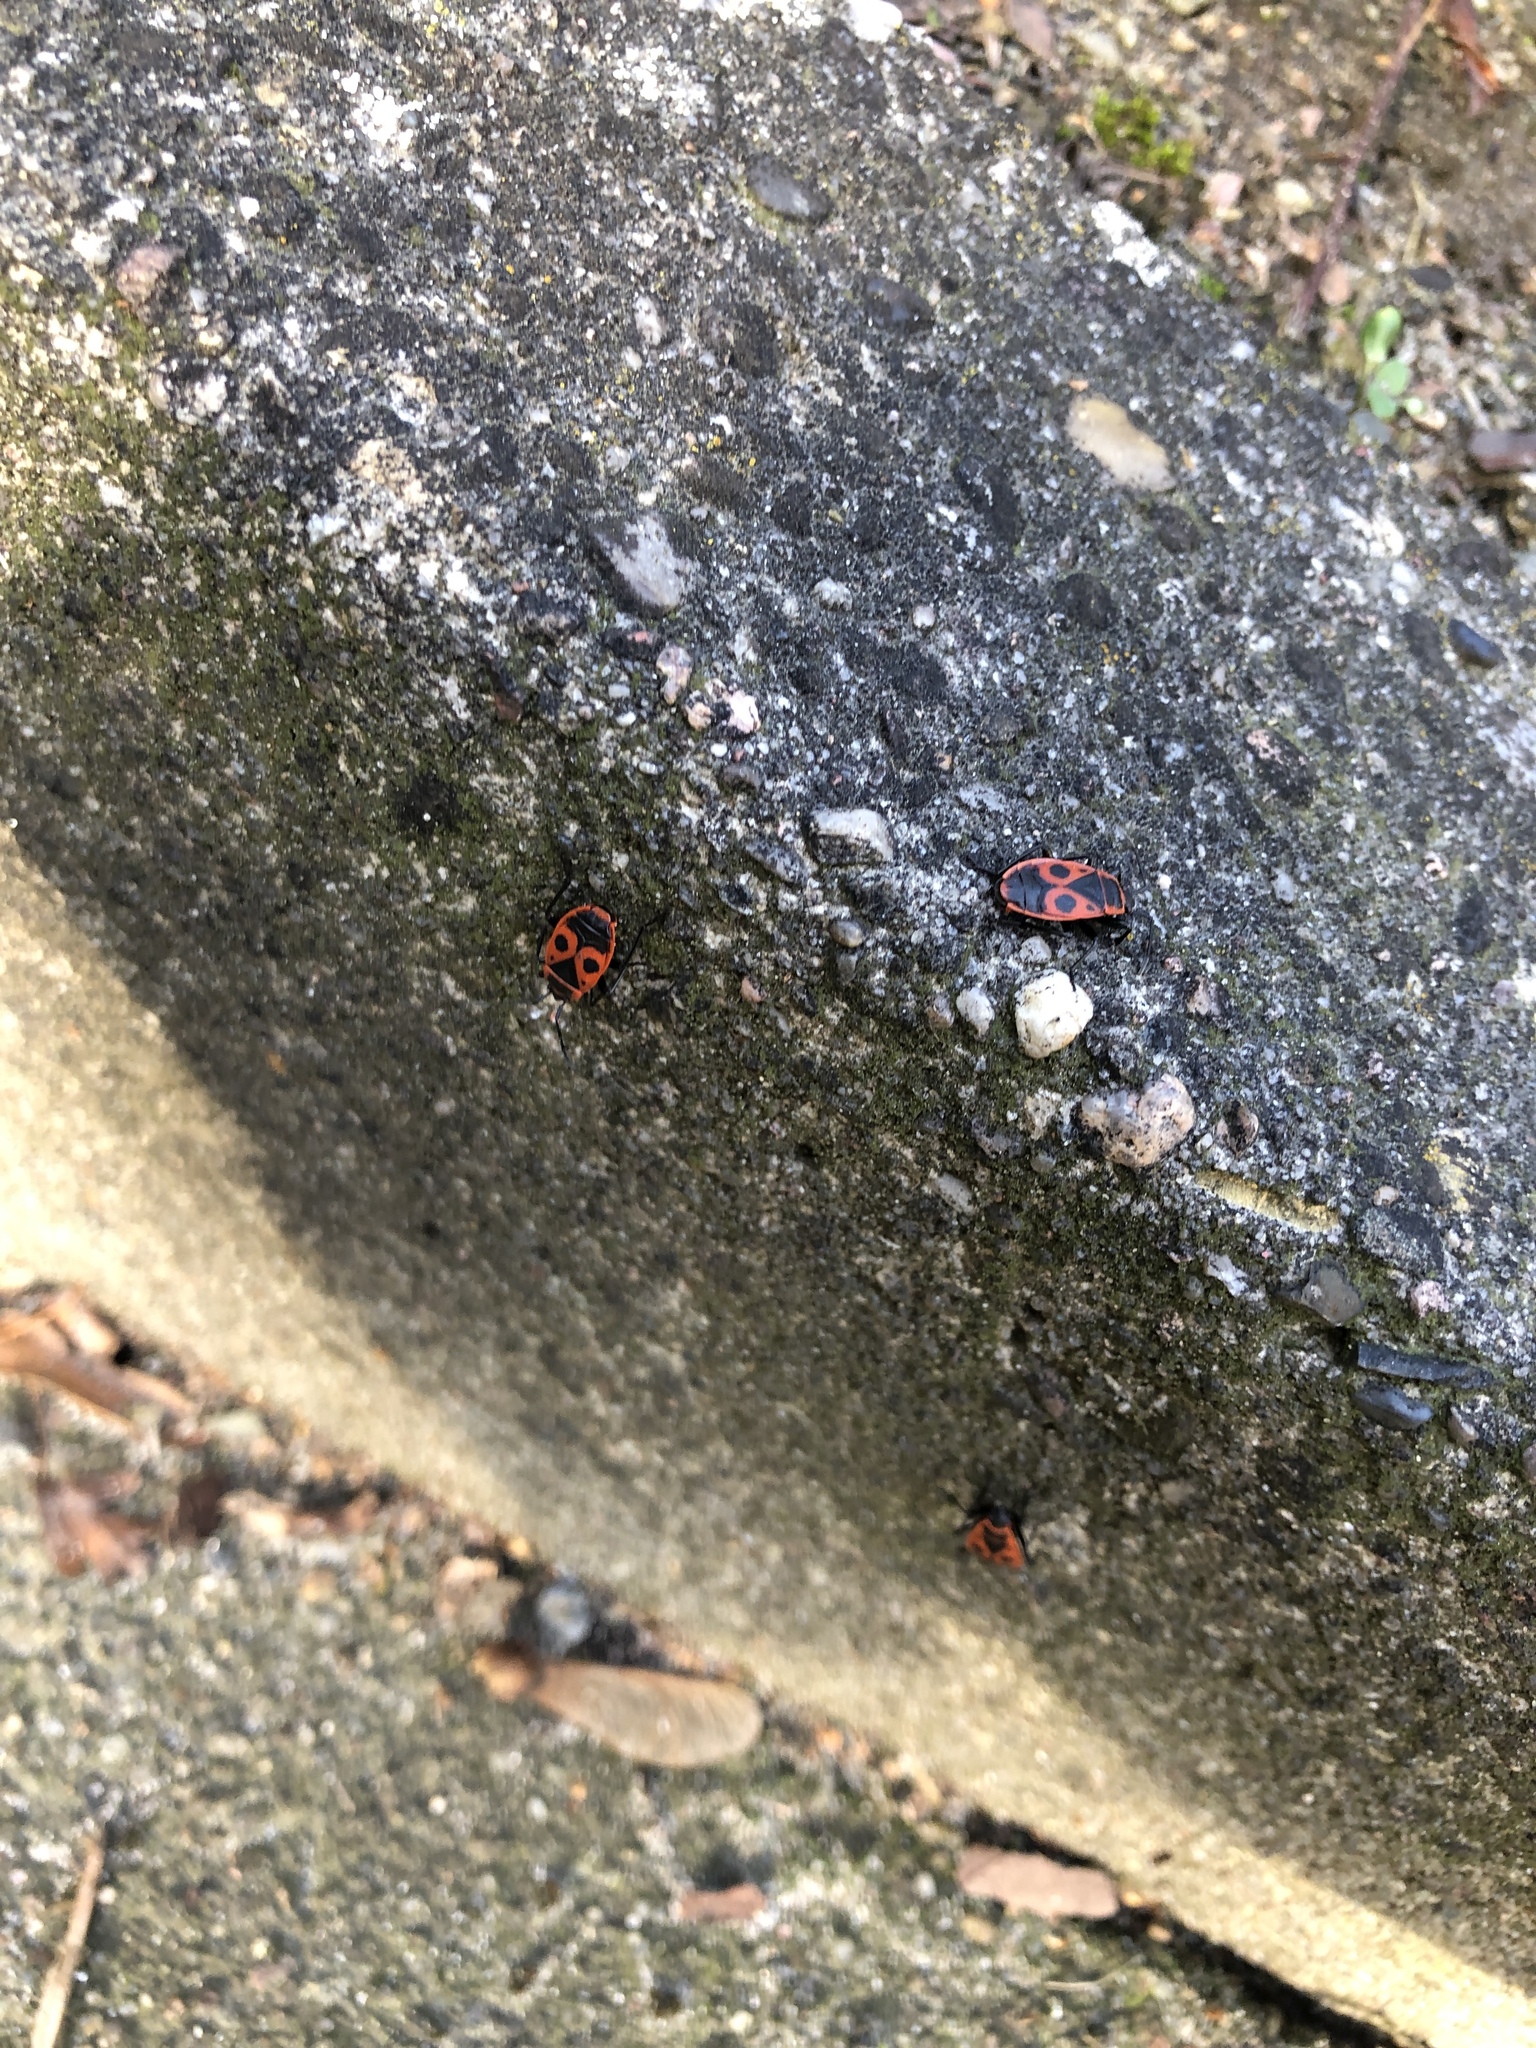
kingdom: Animalia
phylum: Arthropoda
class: Insecta
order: Hemiptera
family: Pyrrhocoridae
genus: Pyrrhocoris
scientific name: Pyrrhocoris apterus
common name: Firebug
